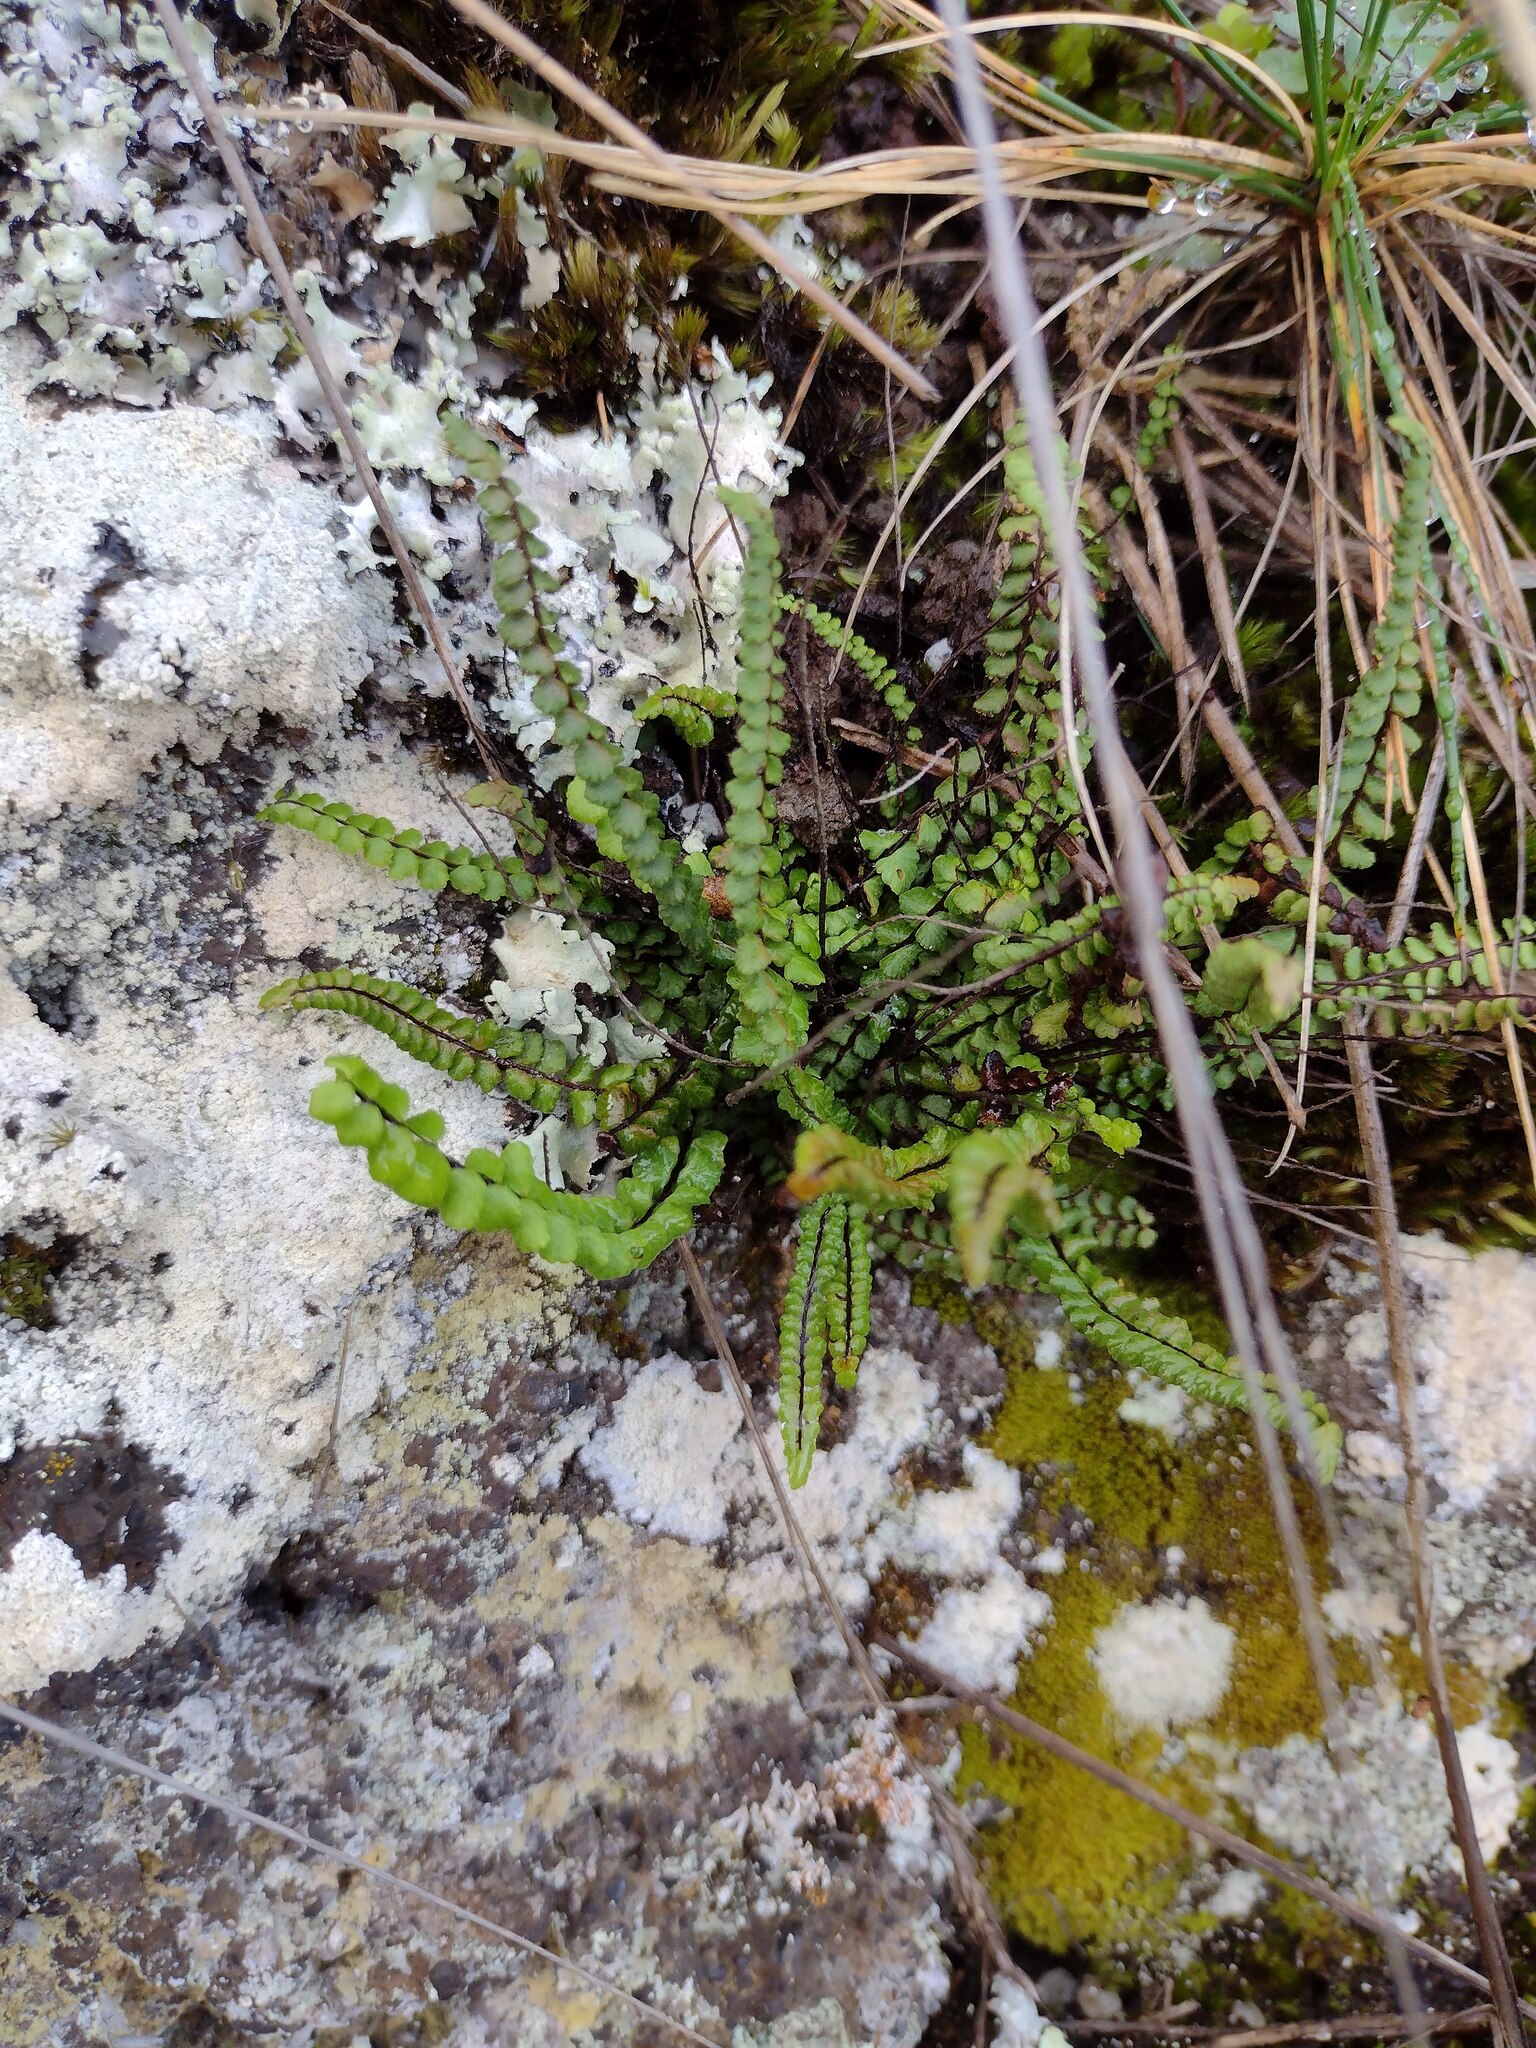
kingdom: Plantae
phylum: Tracheophyta
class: Polypodiopsida
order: Polypodiales
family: Aspleniaceae
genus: Asplenium
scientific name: Asplenium trichomanes
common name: Maidenhair spleenwort
